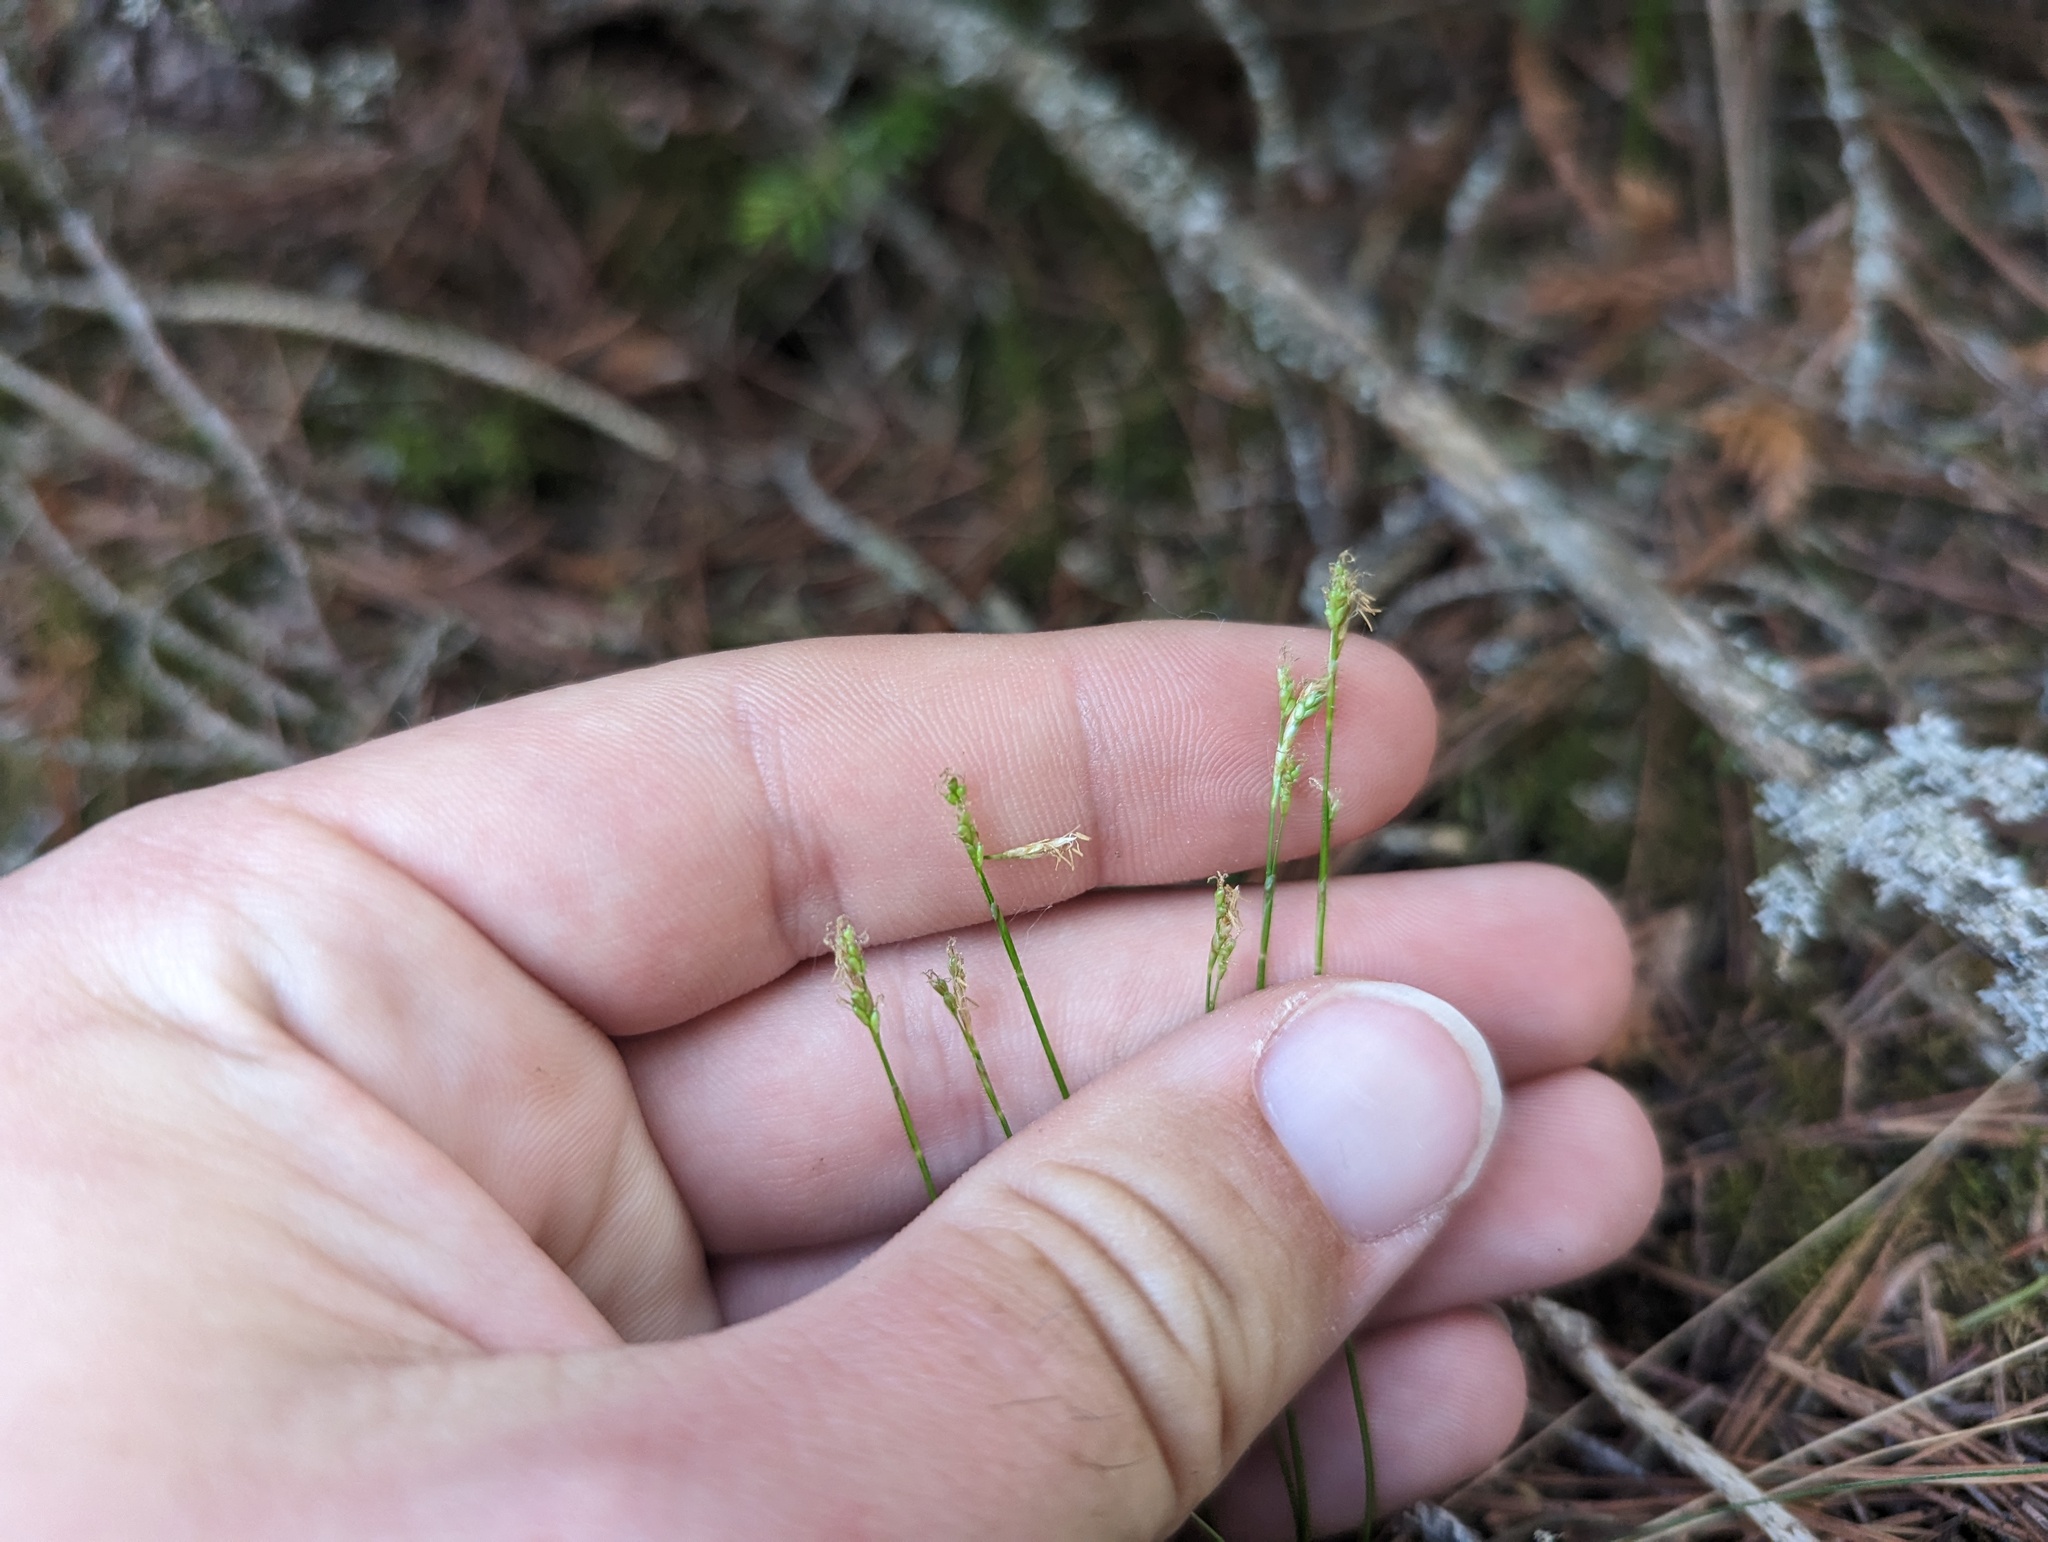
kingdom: Plantae
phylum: Tracheophyta
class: Liliopsida
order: Poales
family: Cyperaceae
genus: Carex
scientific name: Carex eburnea
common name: Bristle-leaved sedge
